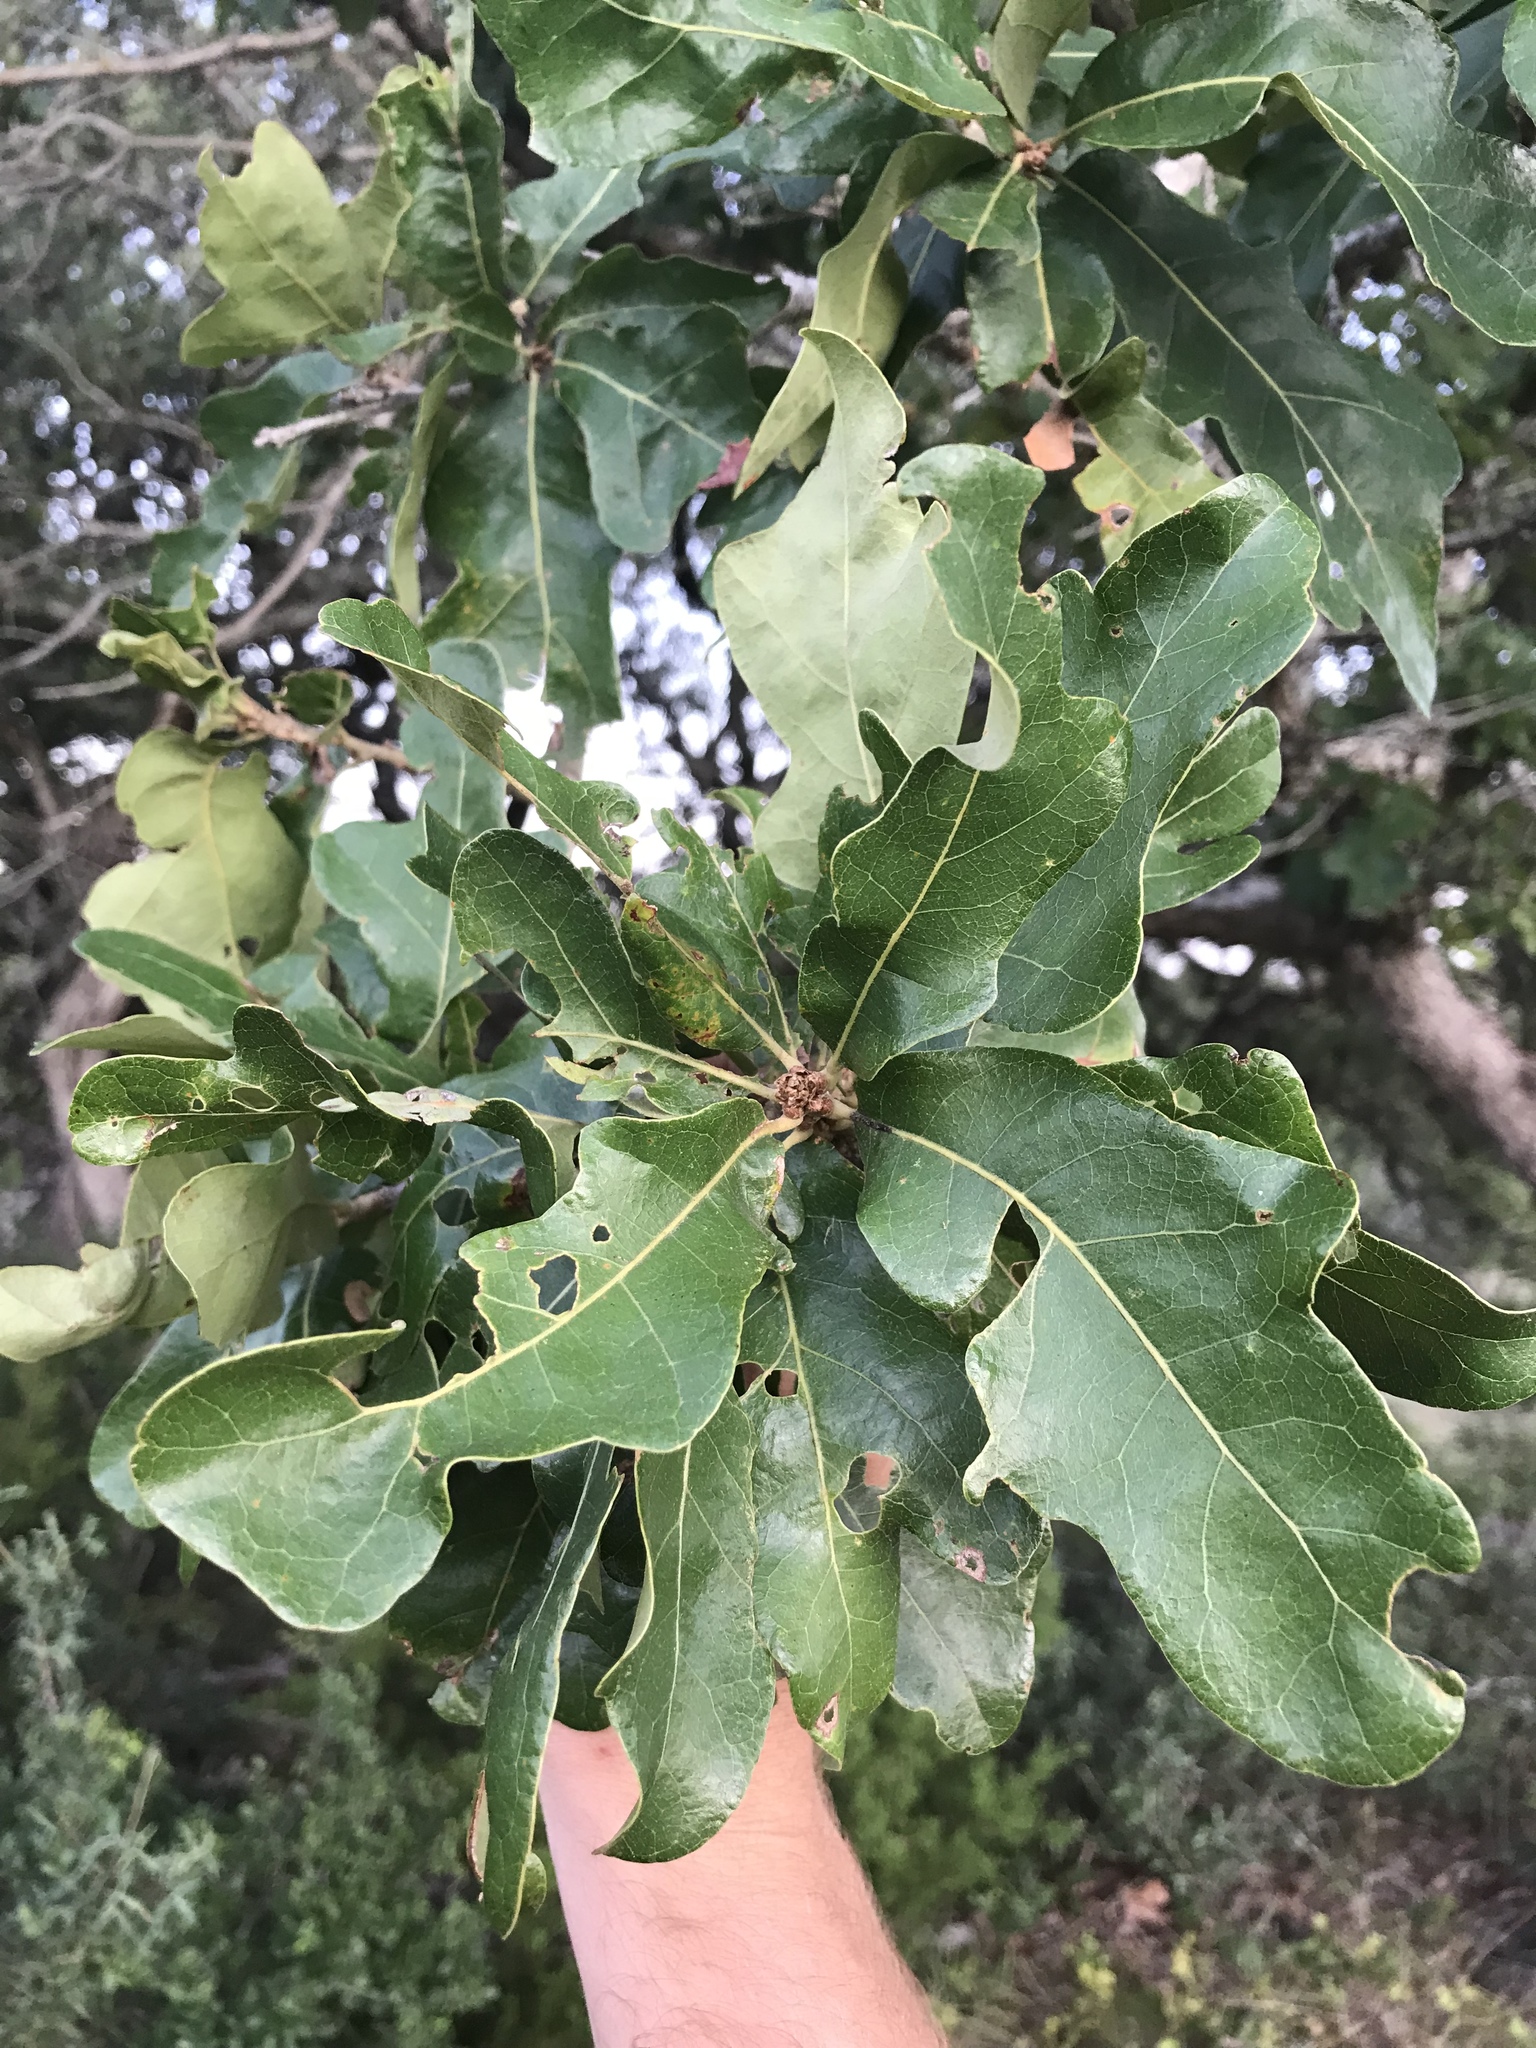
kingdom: Plantae
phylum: Tracheophyta
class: Magnoliopsida
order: Fagales
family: Fagaceae
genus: Quercus
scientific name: Quercus sinuata
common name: Durand oak
